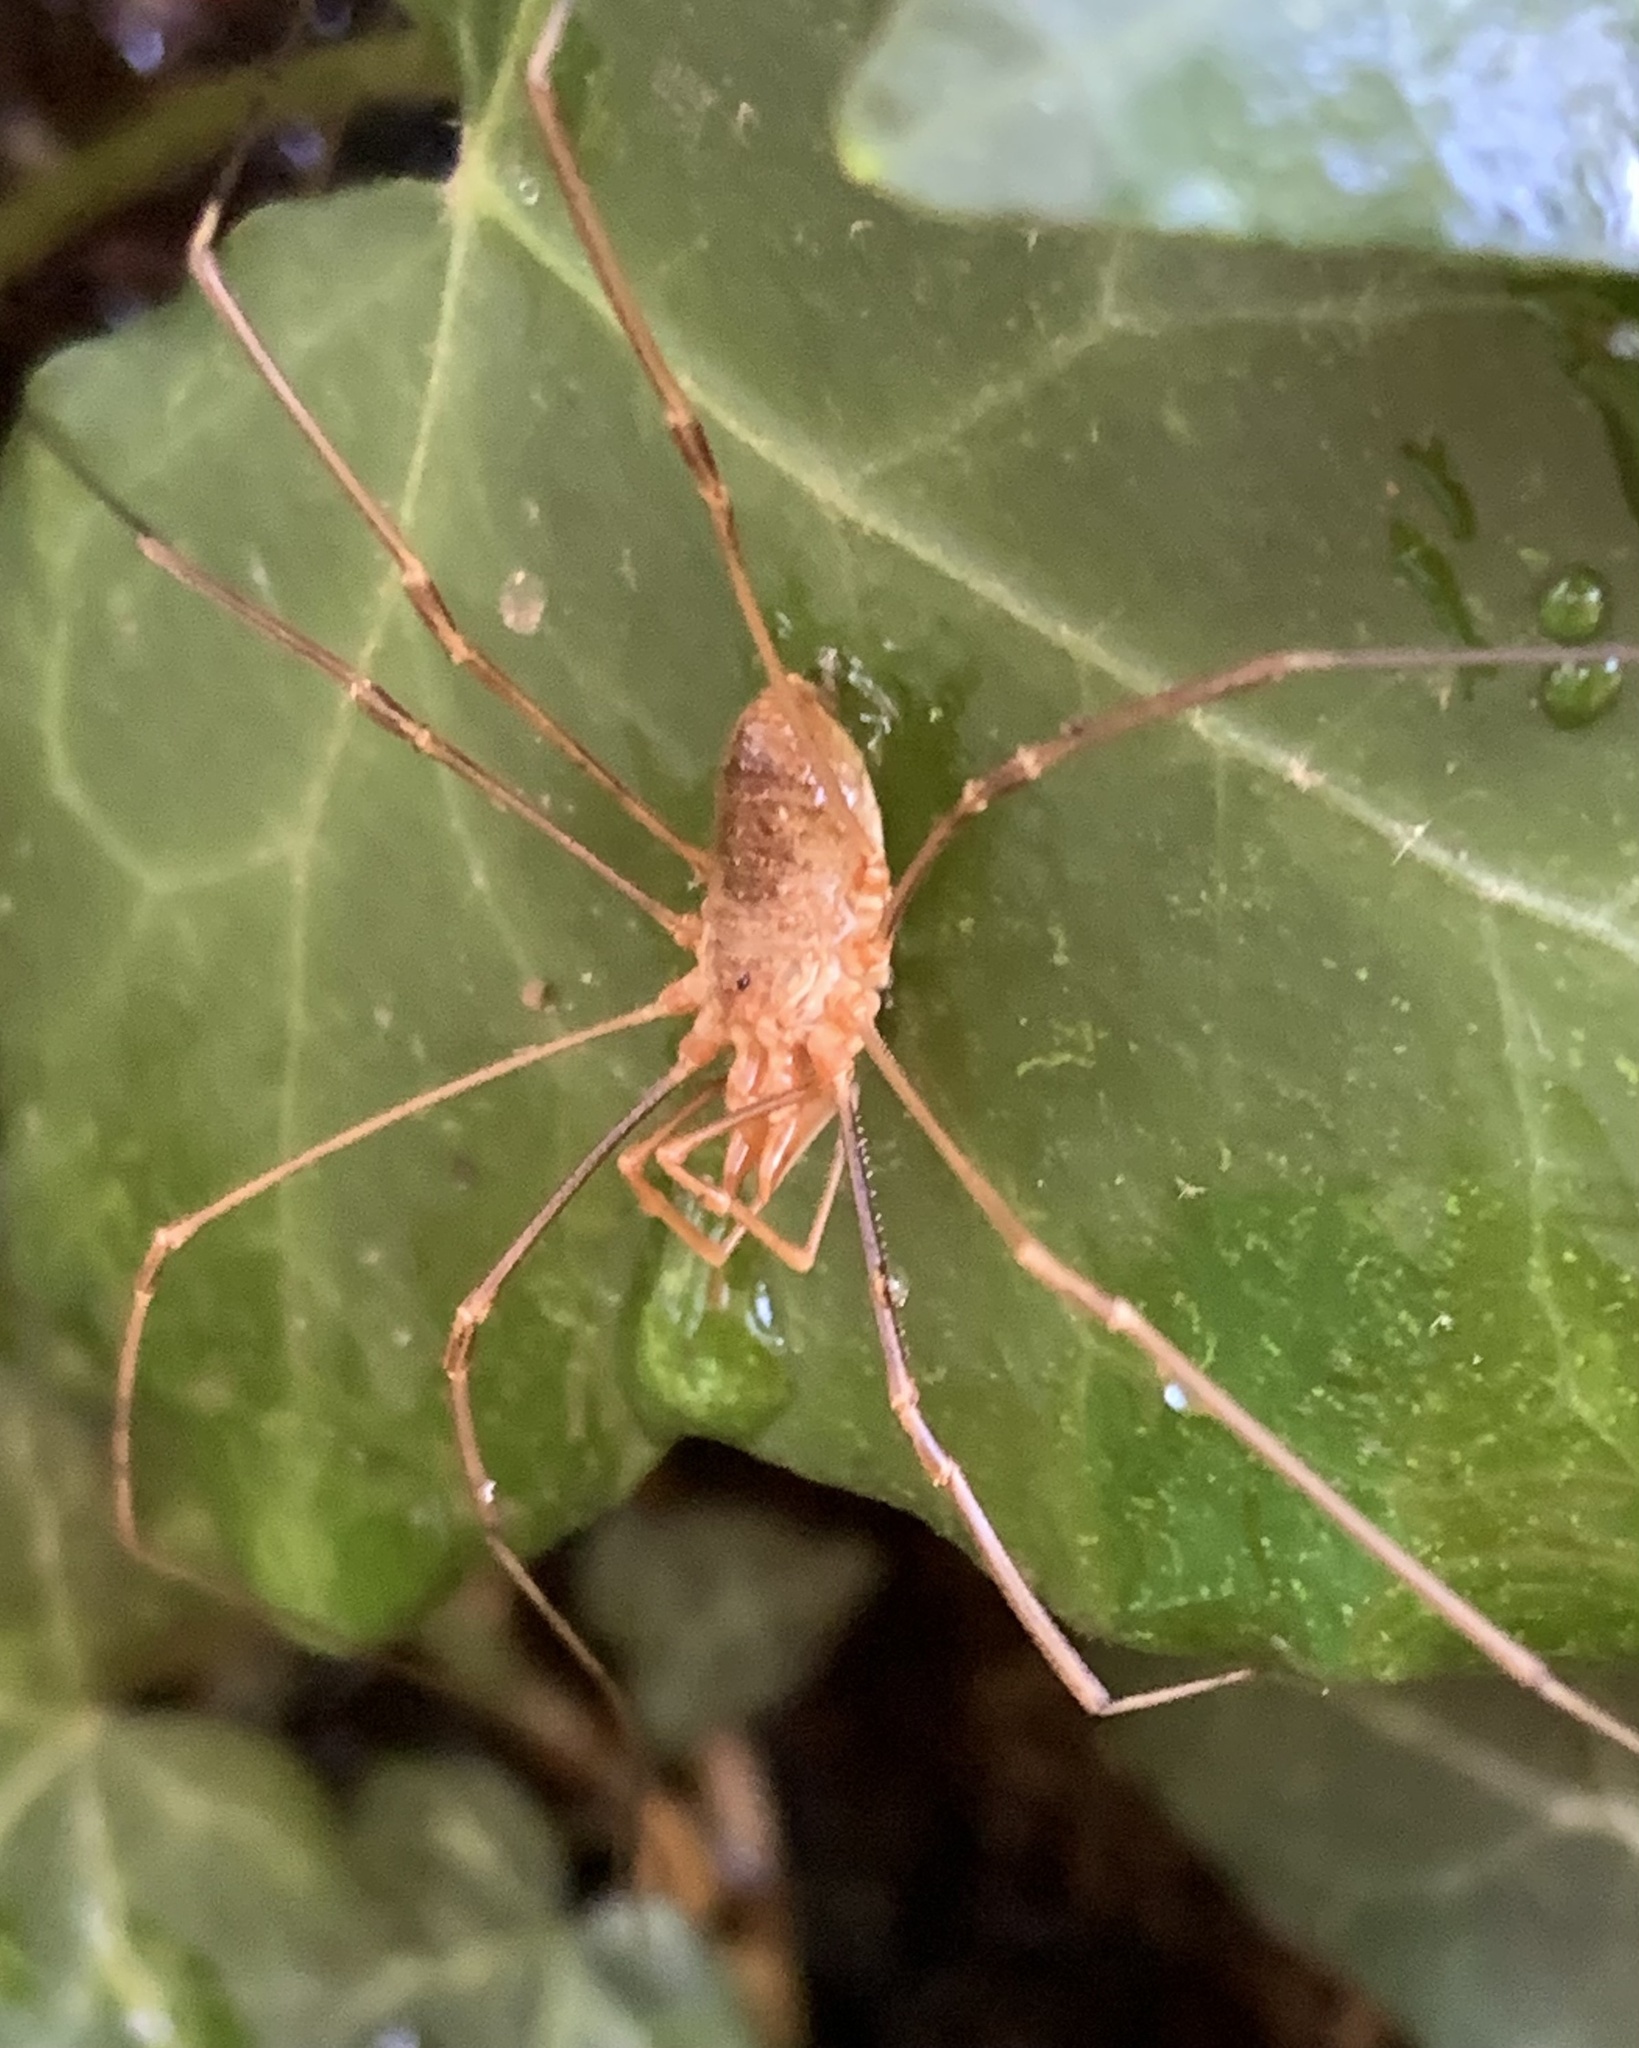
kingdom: Animalia
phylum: Arthropoda
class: Arachnida
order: Opiliones
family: Phalangiidae
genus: Phalangium
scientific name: Phalangium opilio
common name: Daddy longleg
